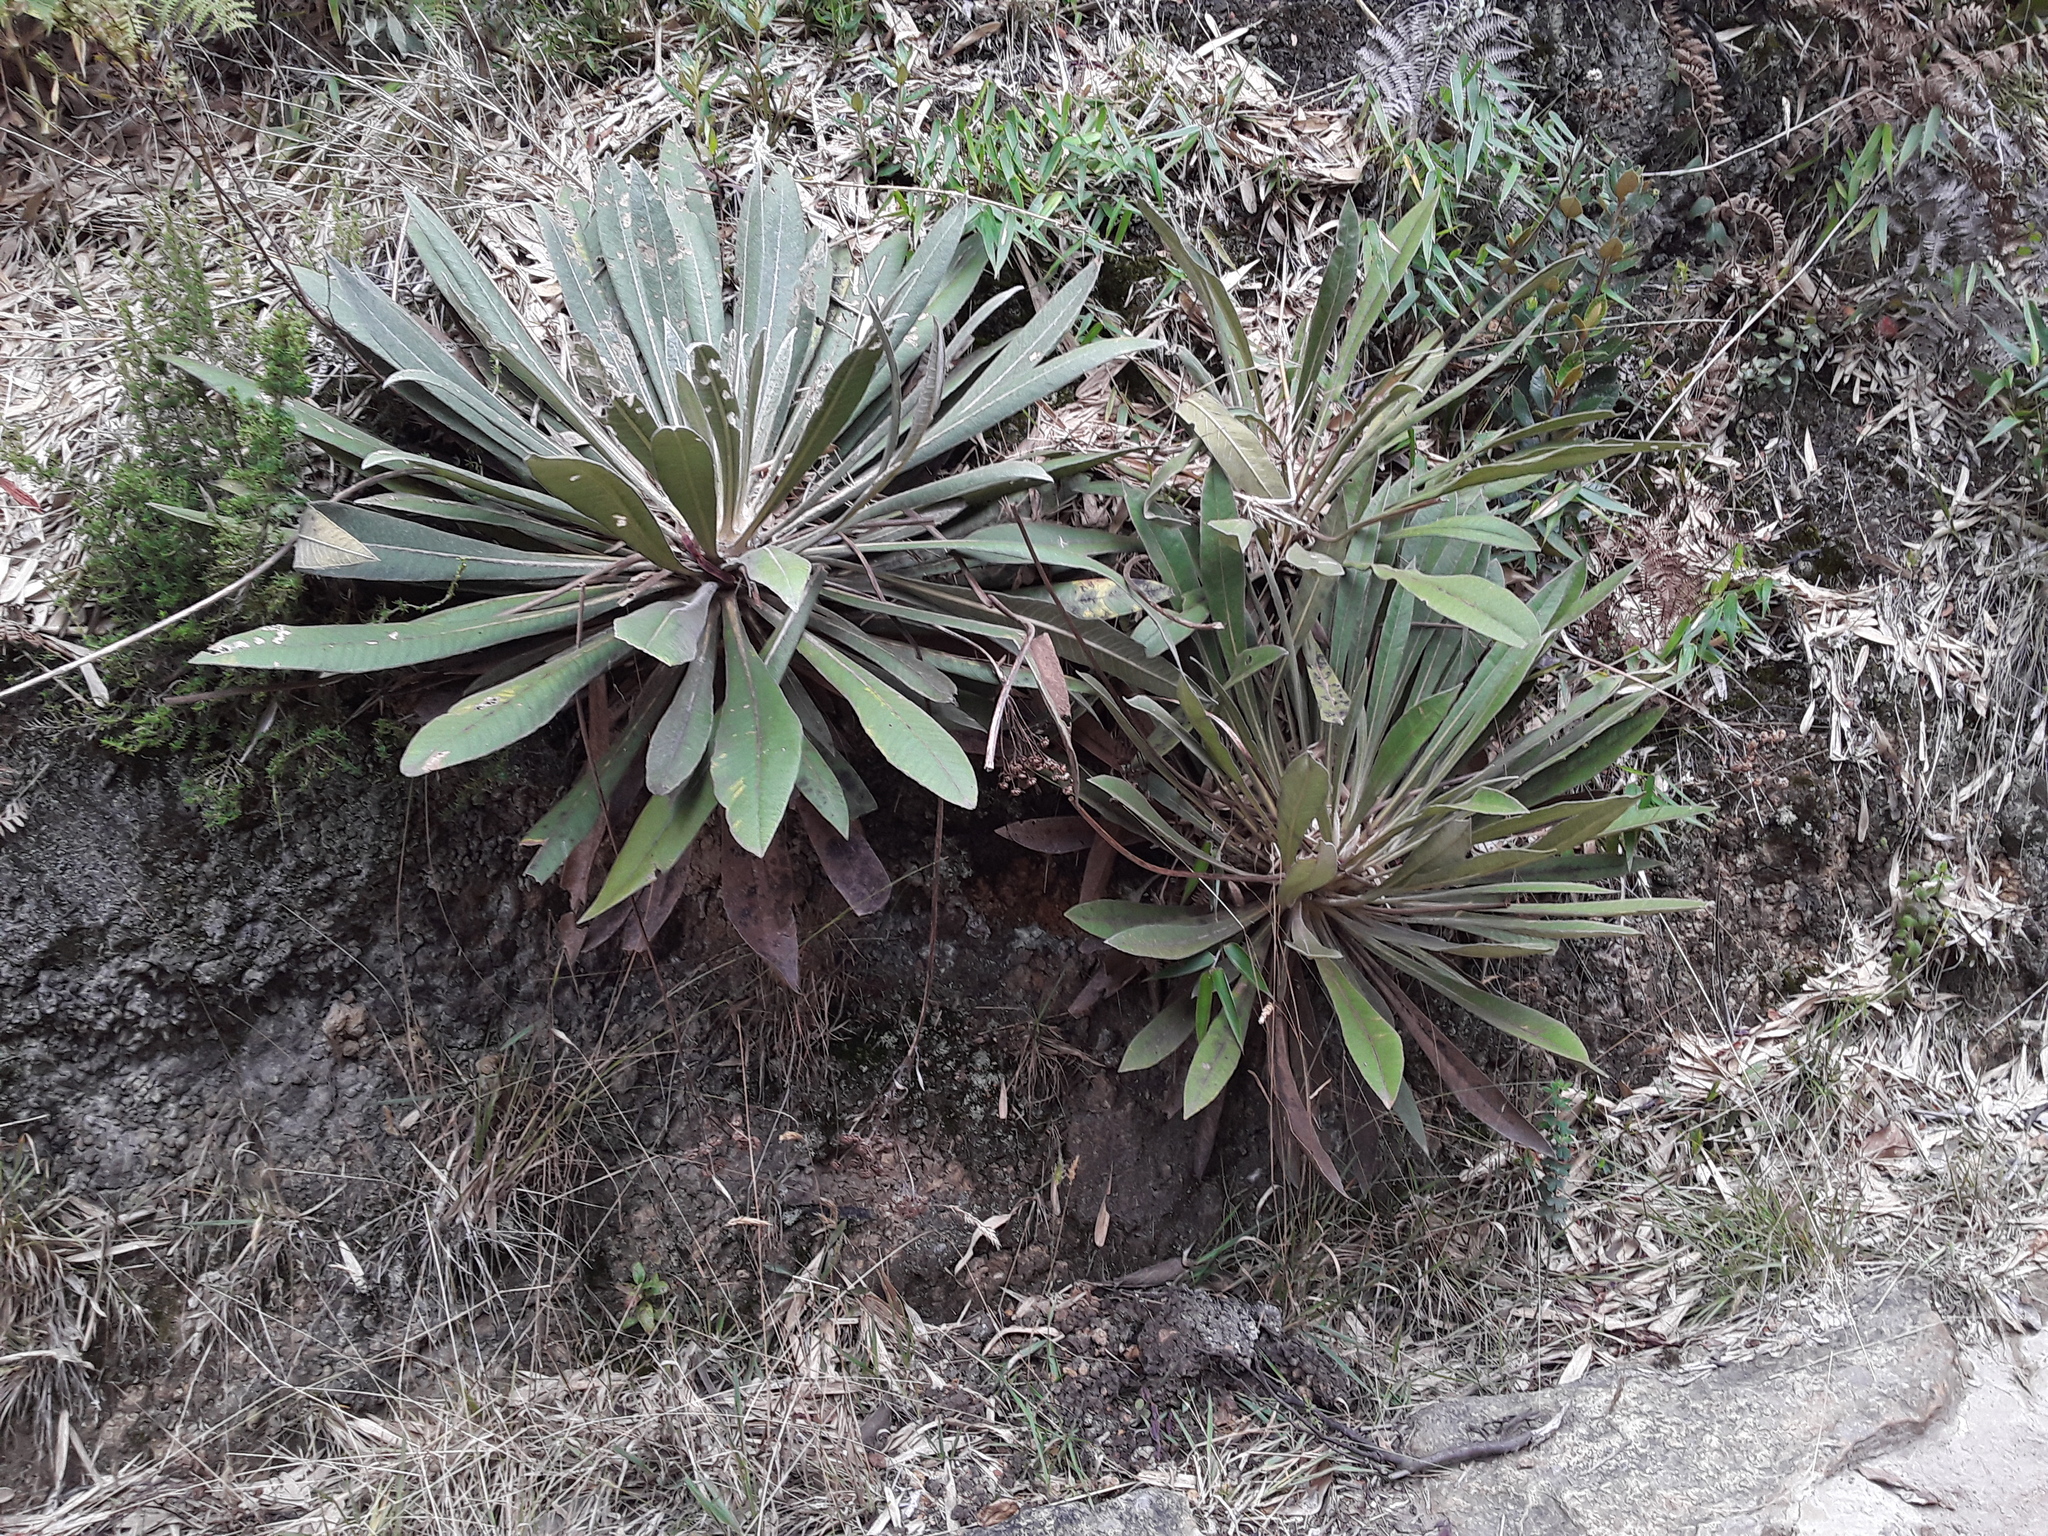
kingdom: Plantae
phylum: Tracheophyta
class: Magnoliopsida
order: Asterales
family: Asteraceae
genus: Espeletia
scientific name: Espeletia corymbosa
